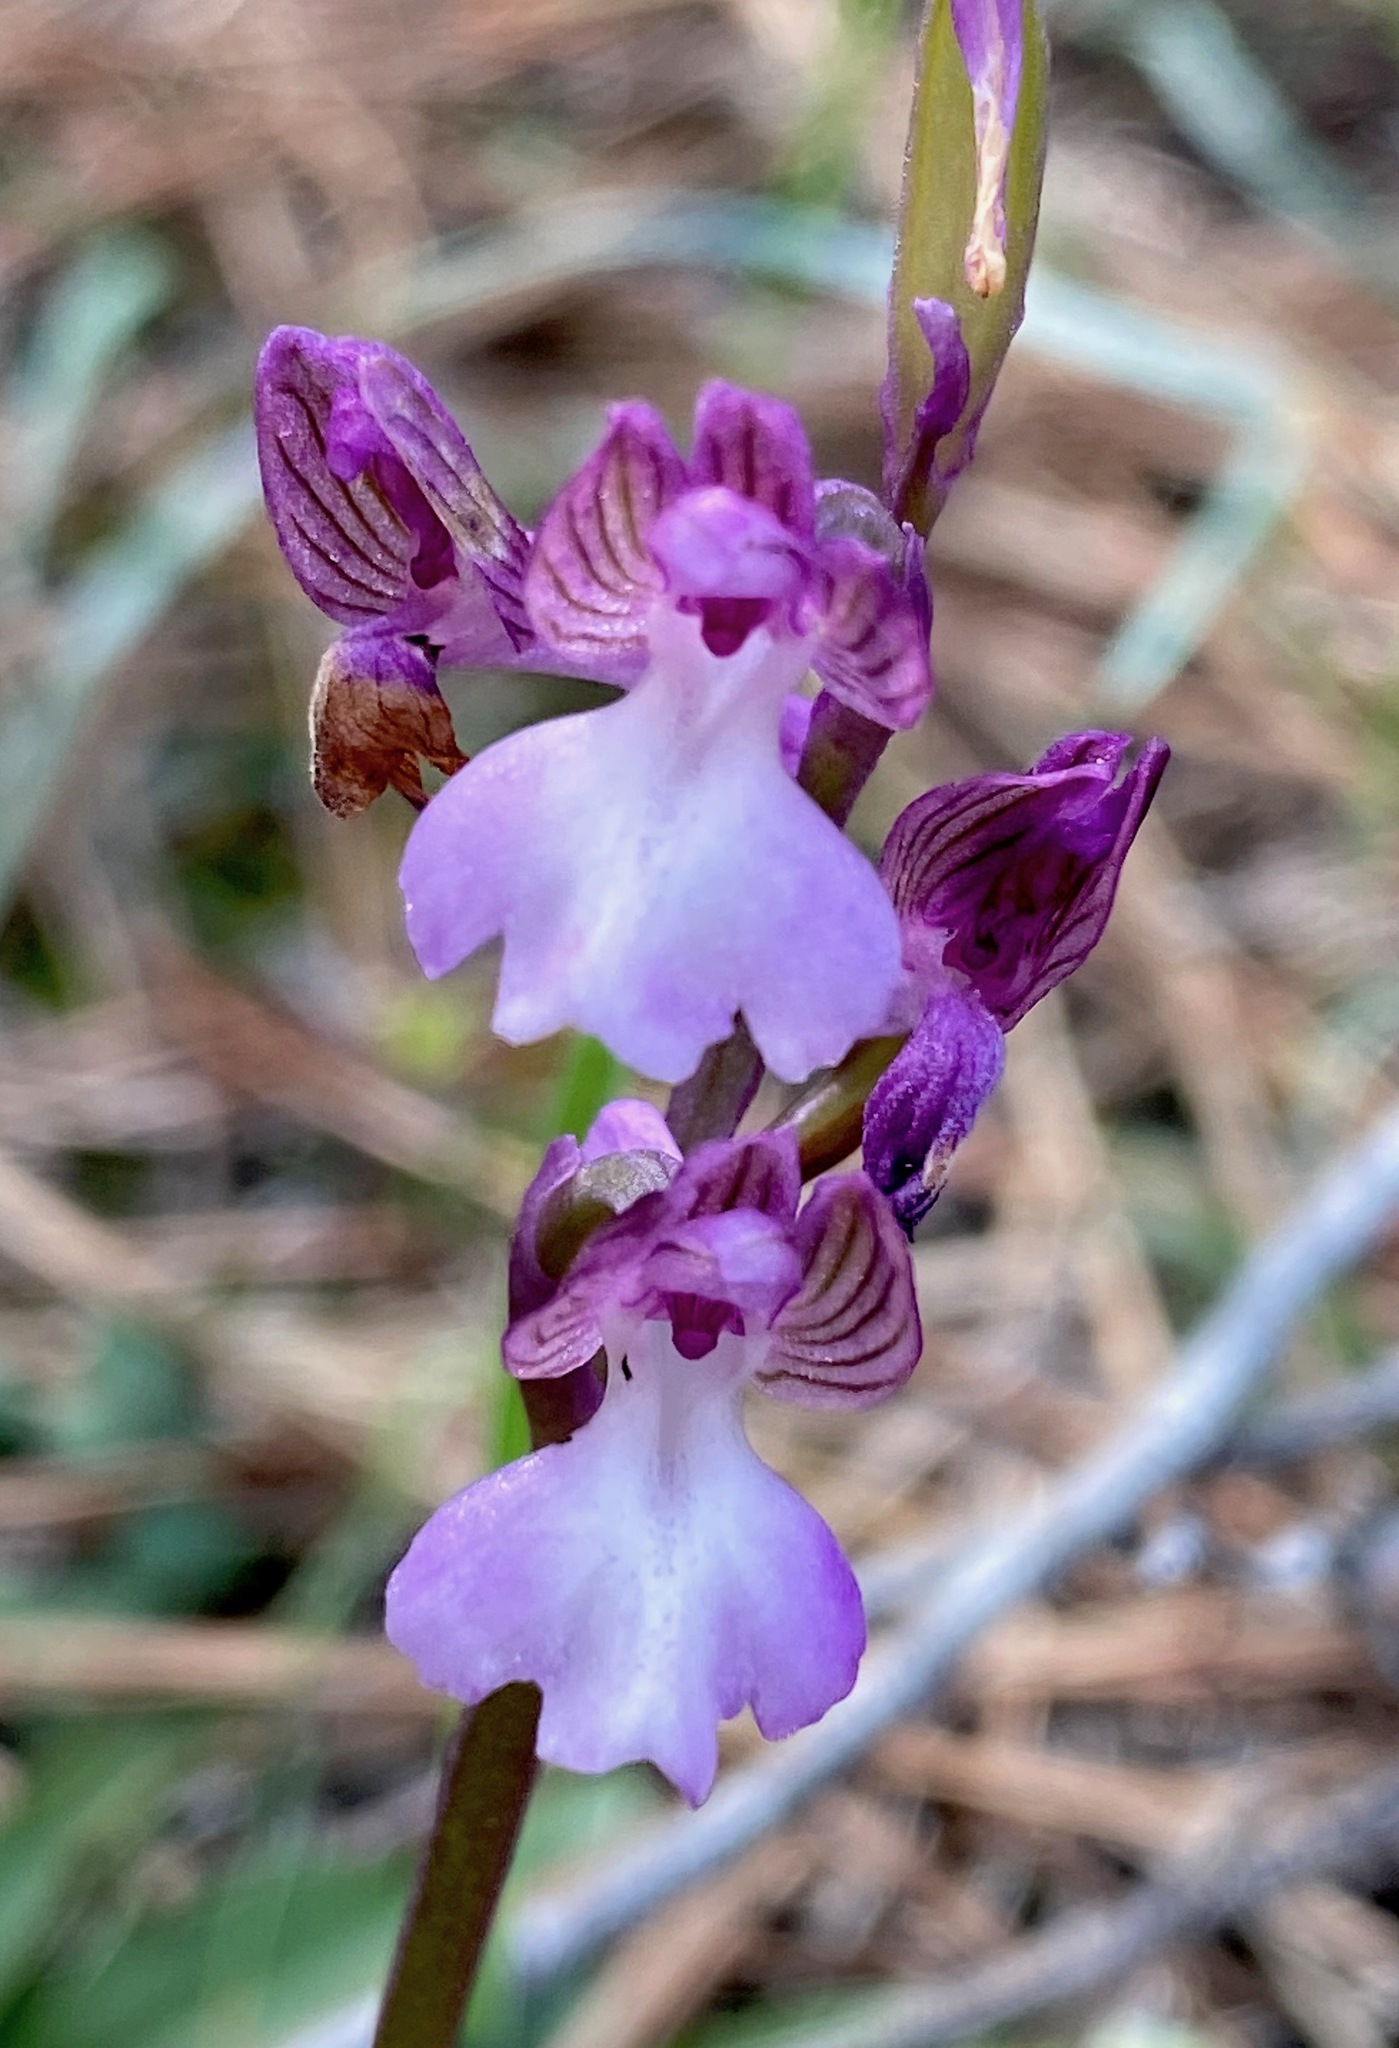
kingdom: Plantae
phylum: Tracheophyta
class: Liliopsida
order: Asparagales
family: Orchidaceae
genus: Anacamptis
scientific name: Anacamptis morio
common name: Green-winged orchid
